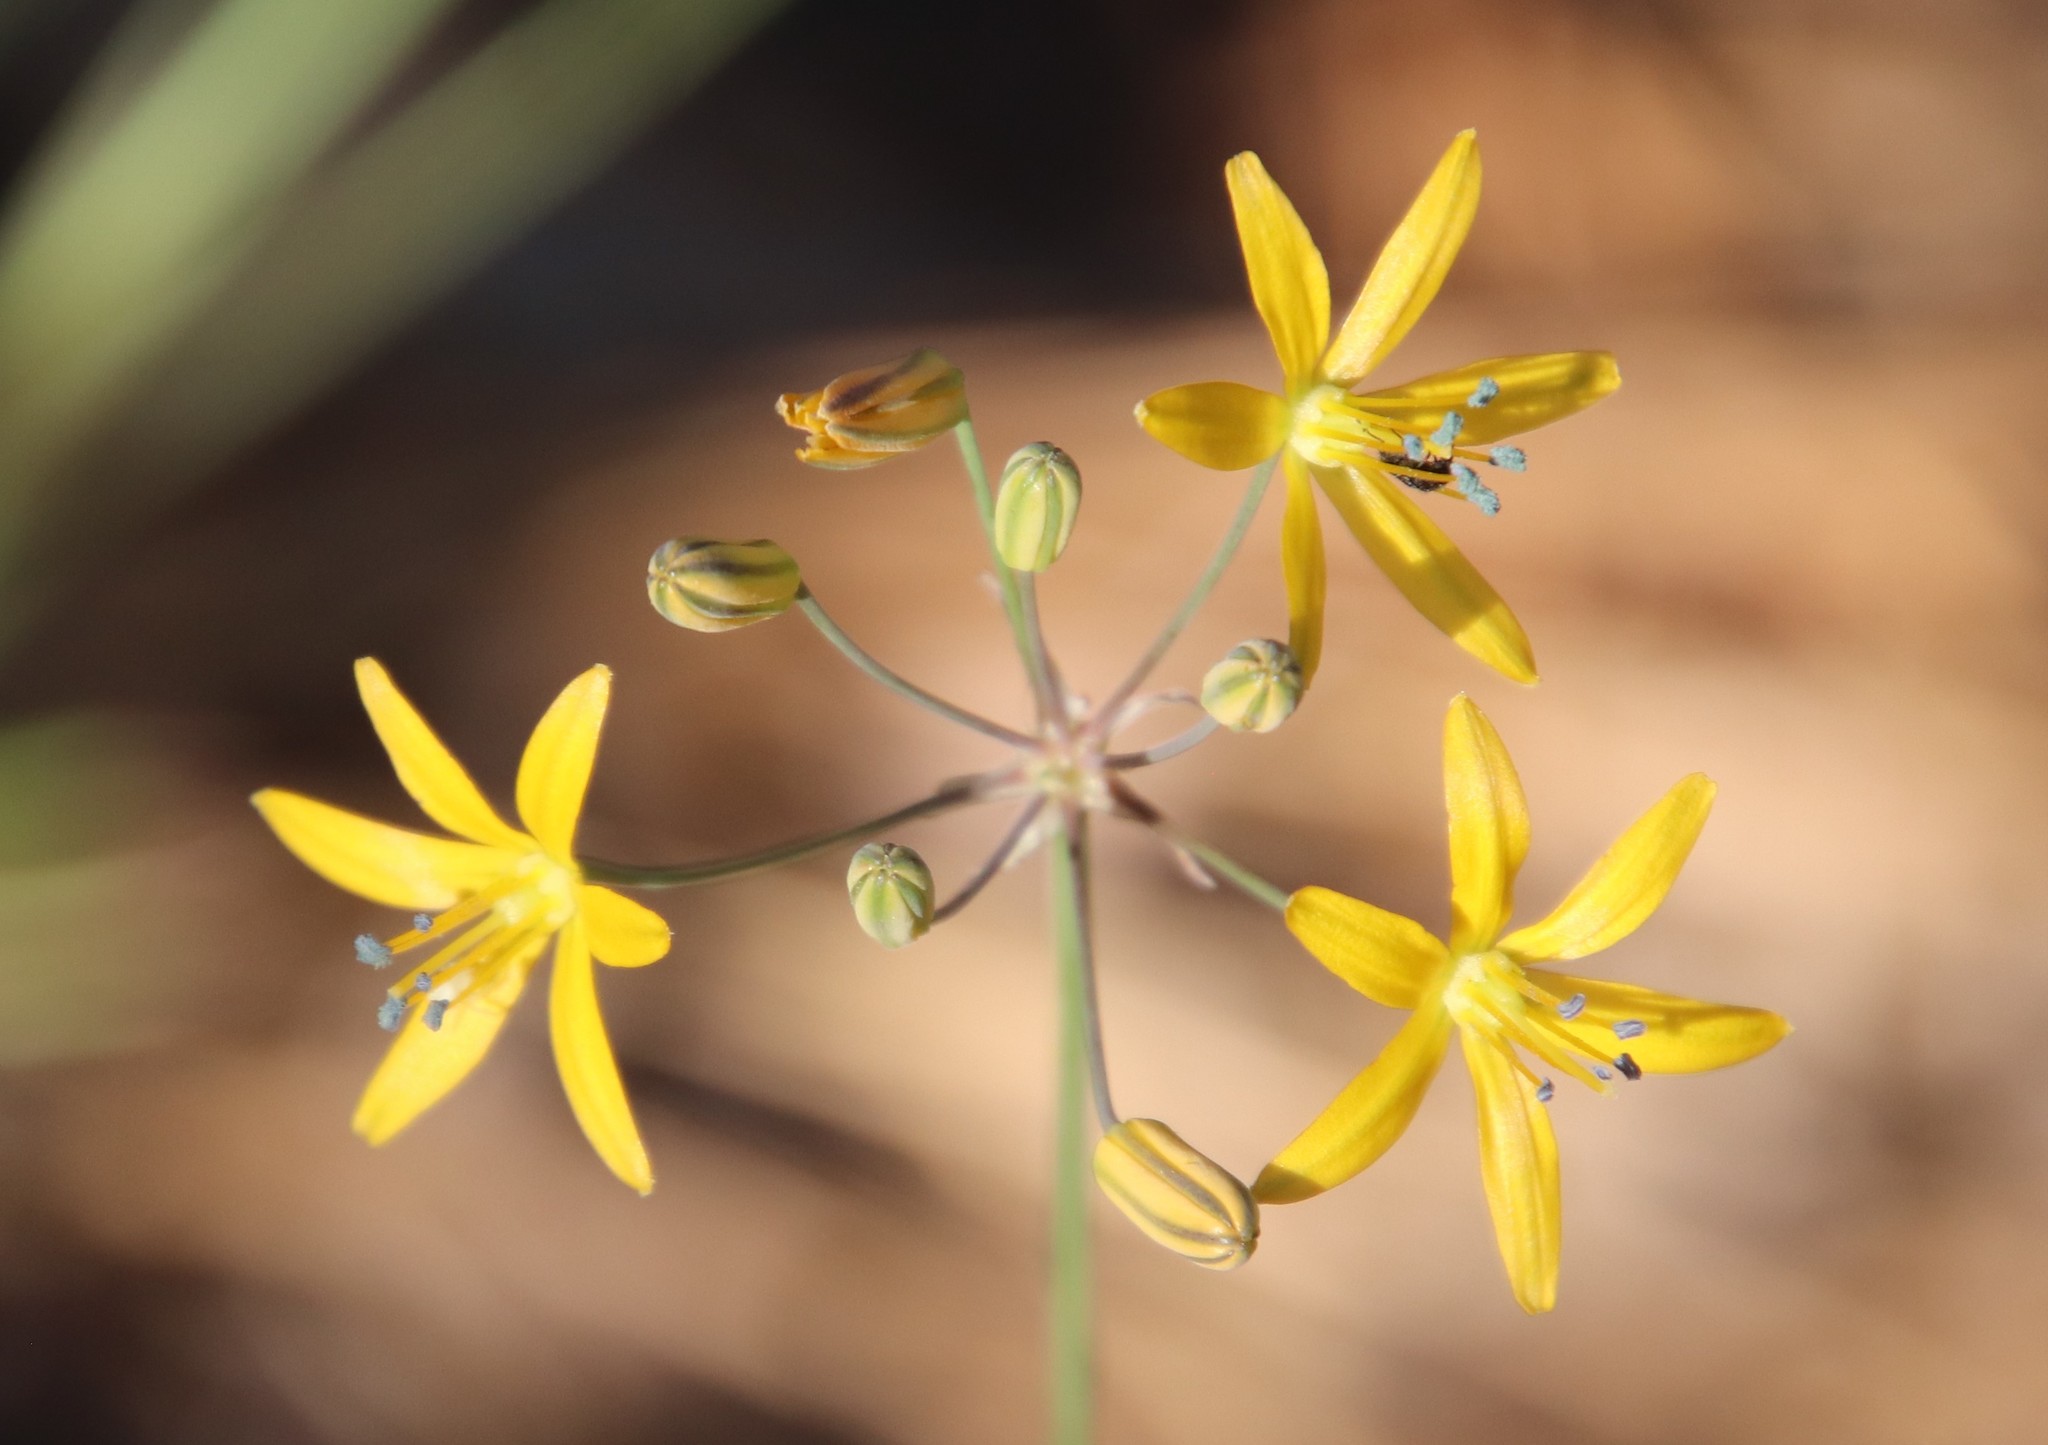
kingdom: Plantae
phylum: Tracheophyta
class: Liliopsida
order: Asparagales
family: Asparagaceae
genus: Bloomeria
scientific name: Bloomeria crocea
